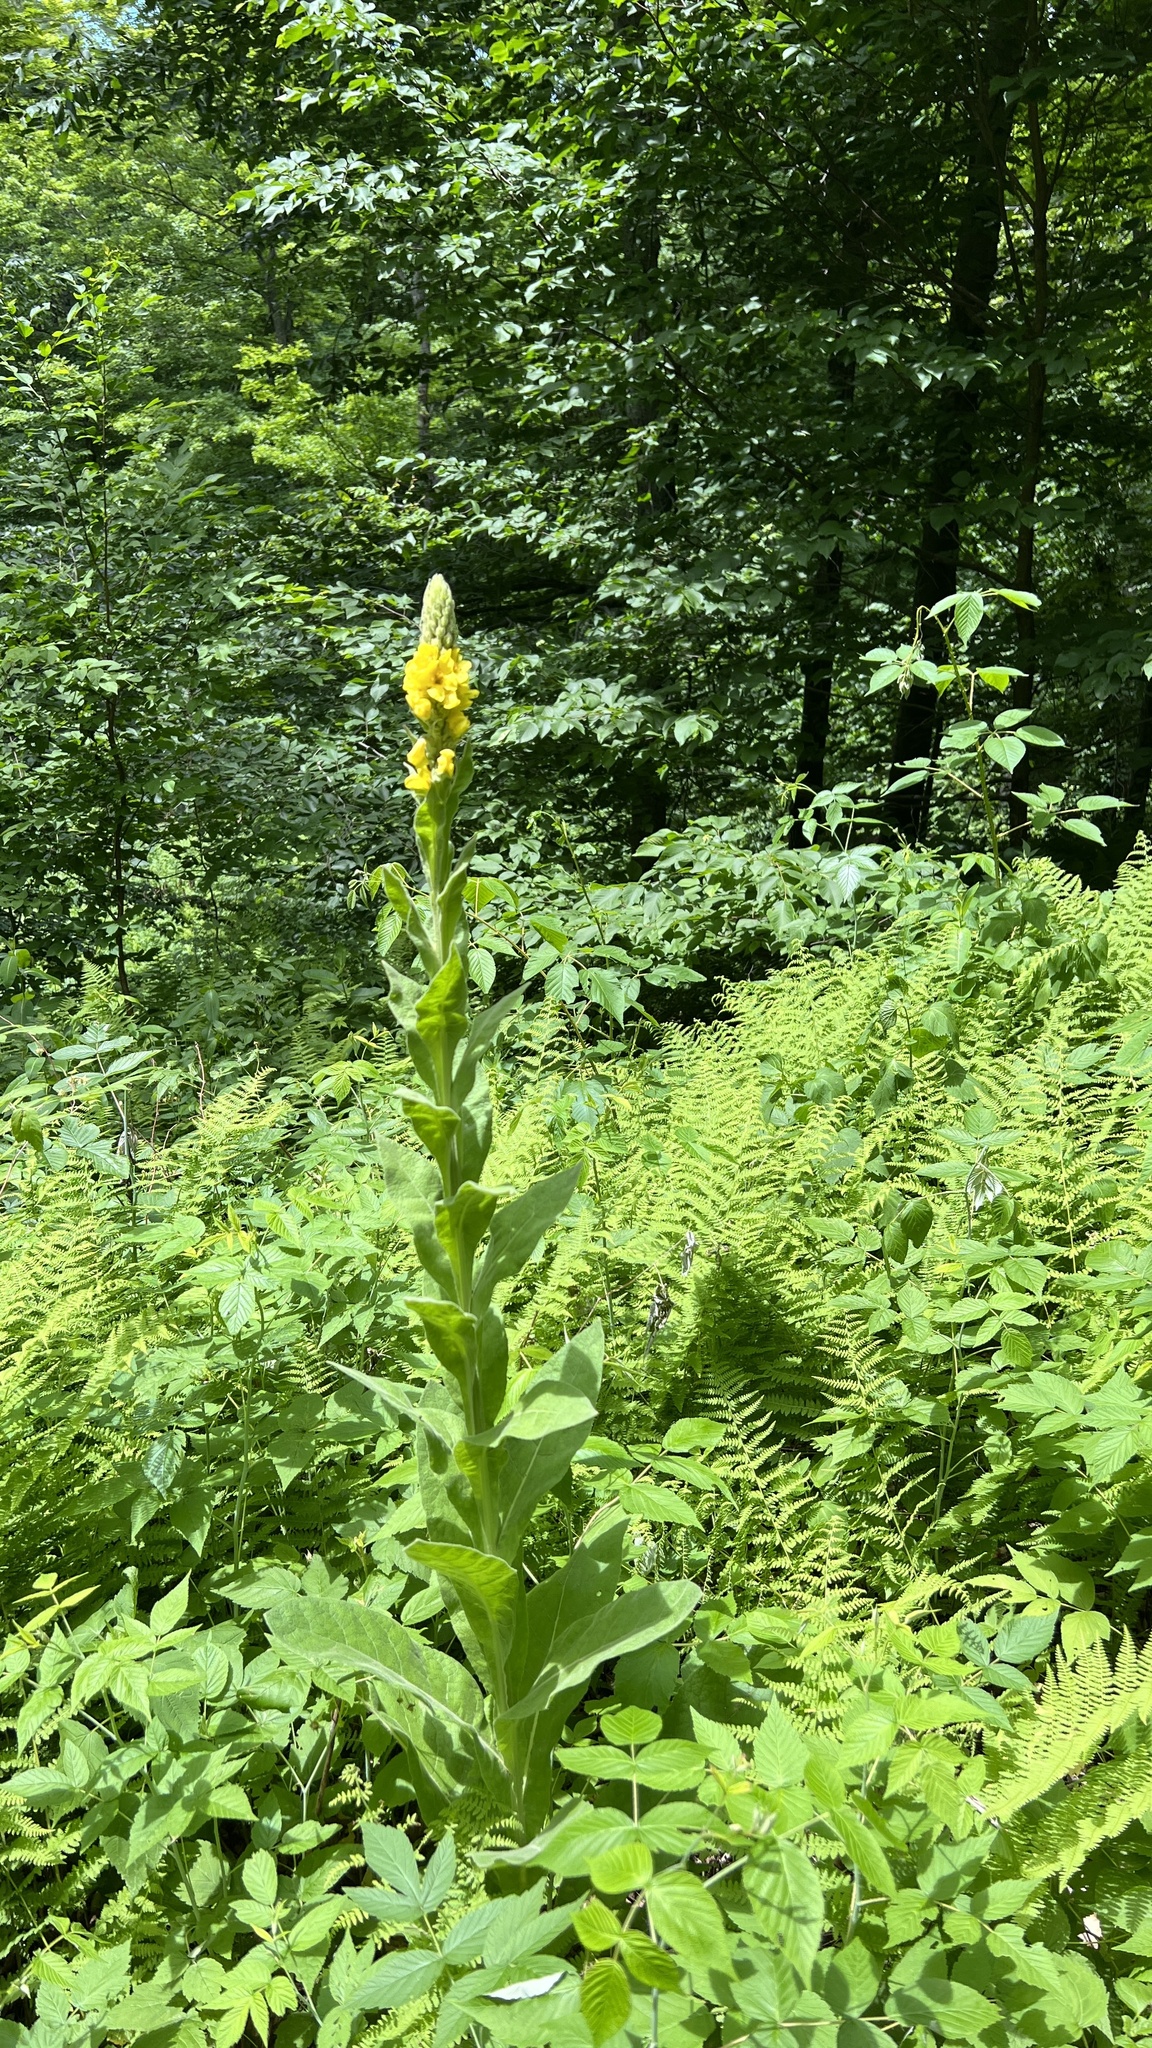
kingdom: Plantae
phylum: Tracheophyta
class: Magnoliopsida
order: Lamiales
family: Scrophulariaceae
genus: Verbascum
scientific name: Verbascum thapsus
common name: Common mullein
